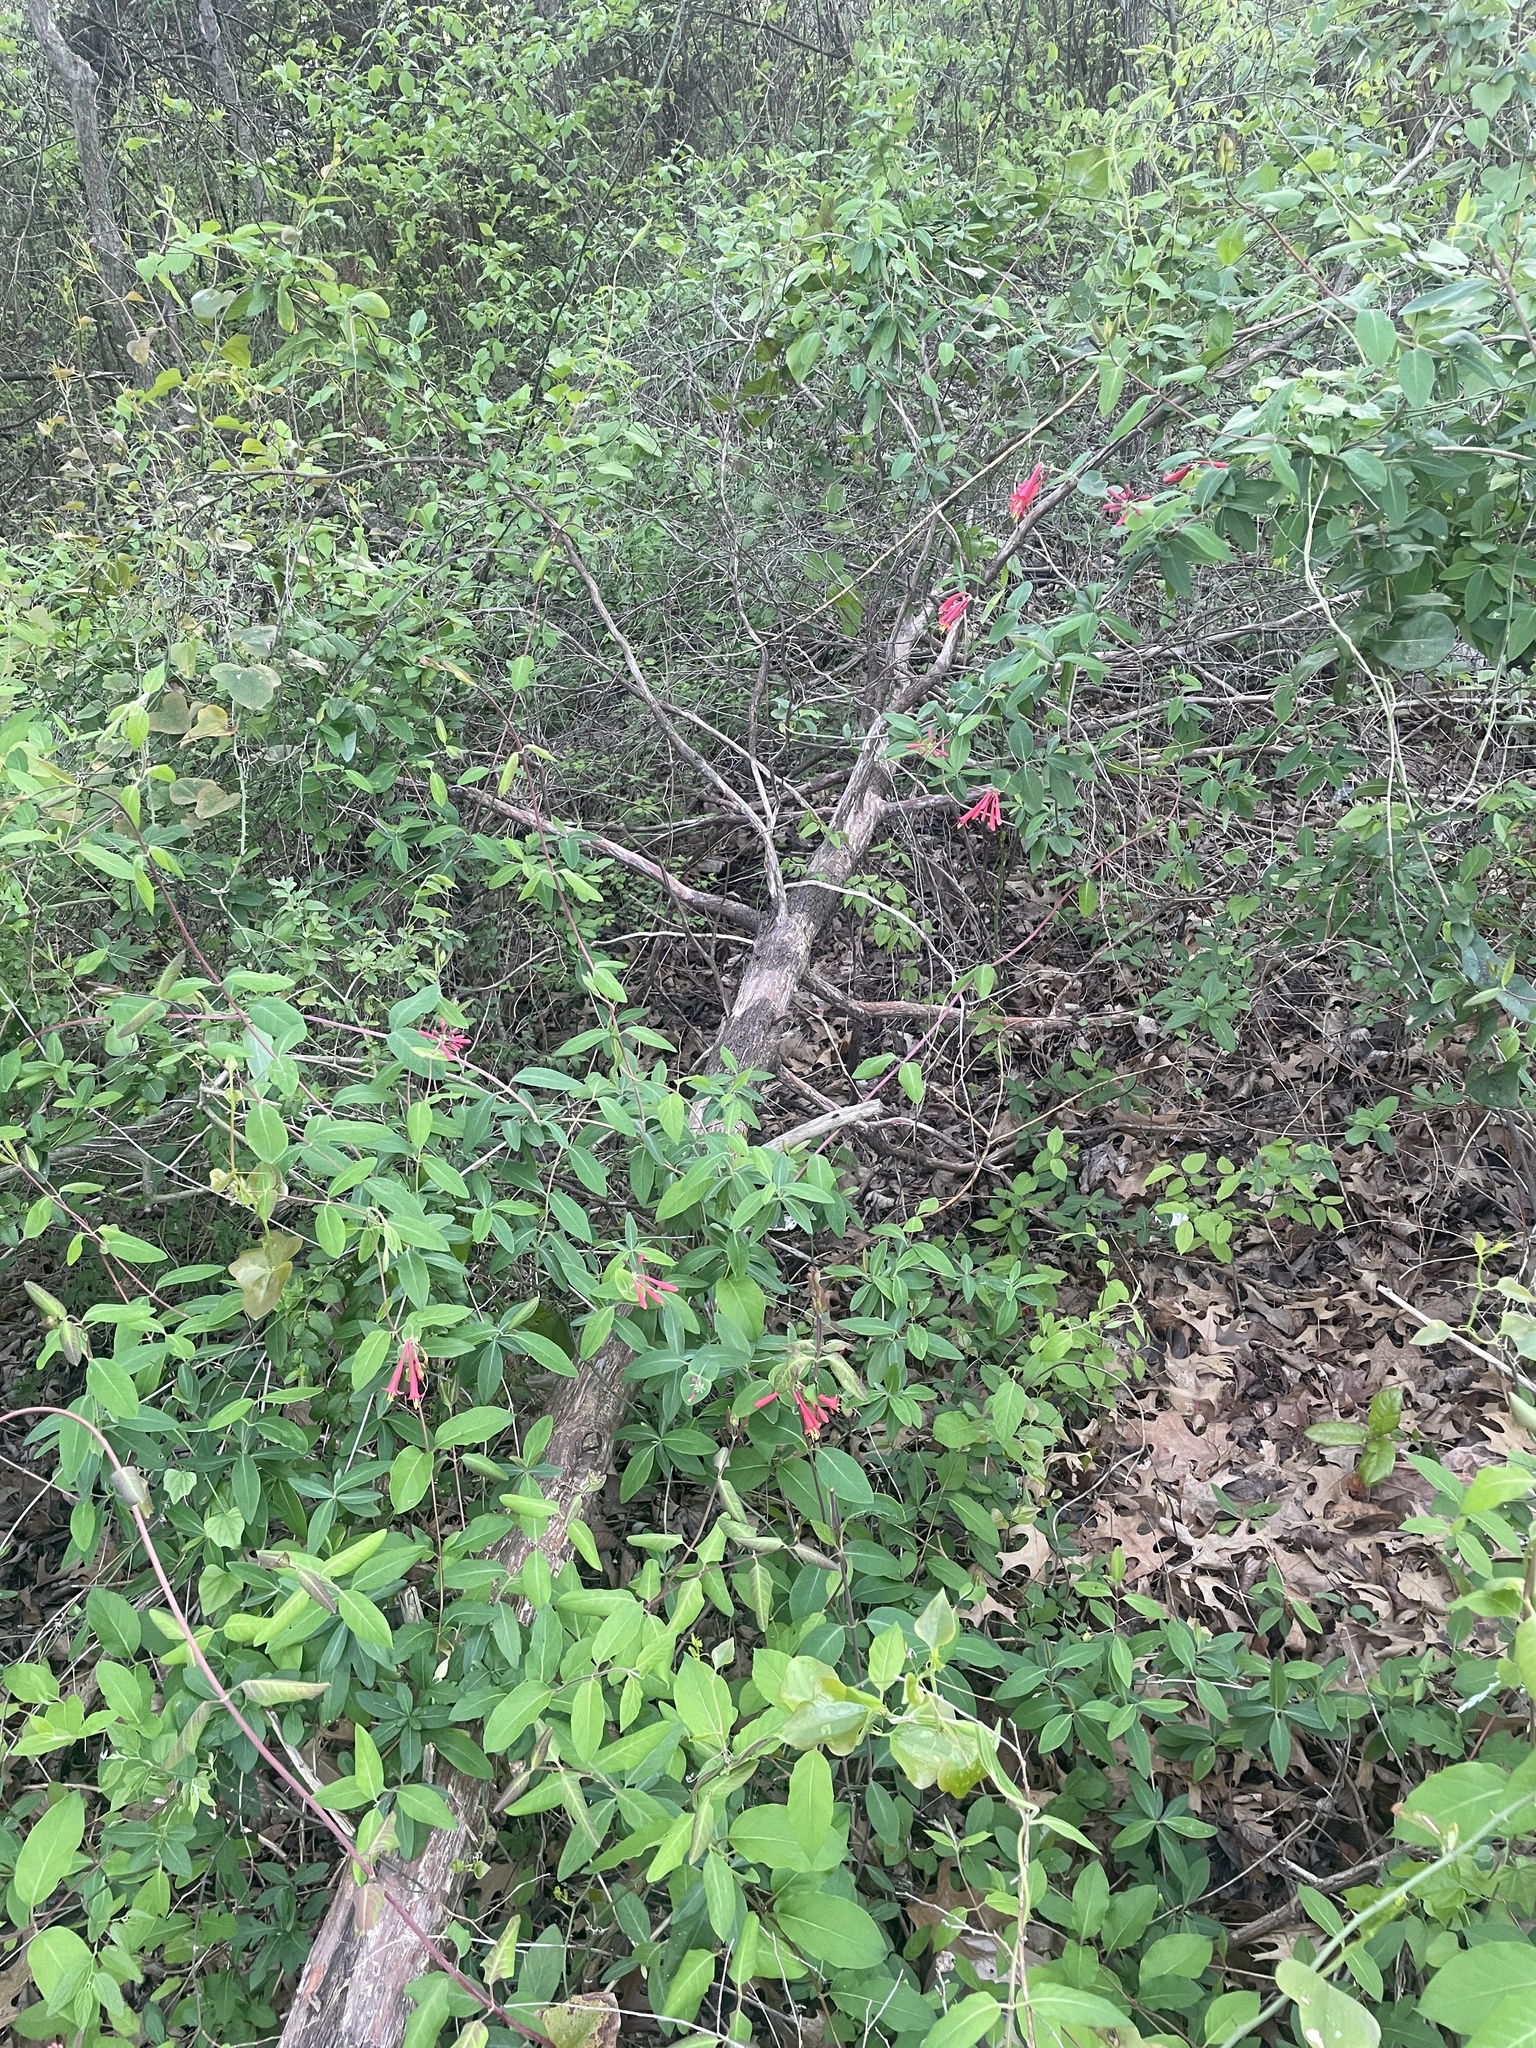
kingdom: Plantae
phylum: Tracheophyta
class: Magnoliopsida
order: Dipsacales
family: Caprifoliaceae
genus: Lonicera
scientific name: Lonicera sempervirens
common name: Coral honeysuckle
